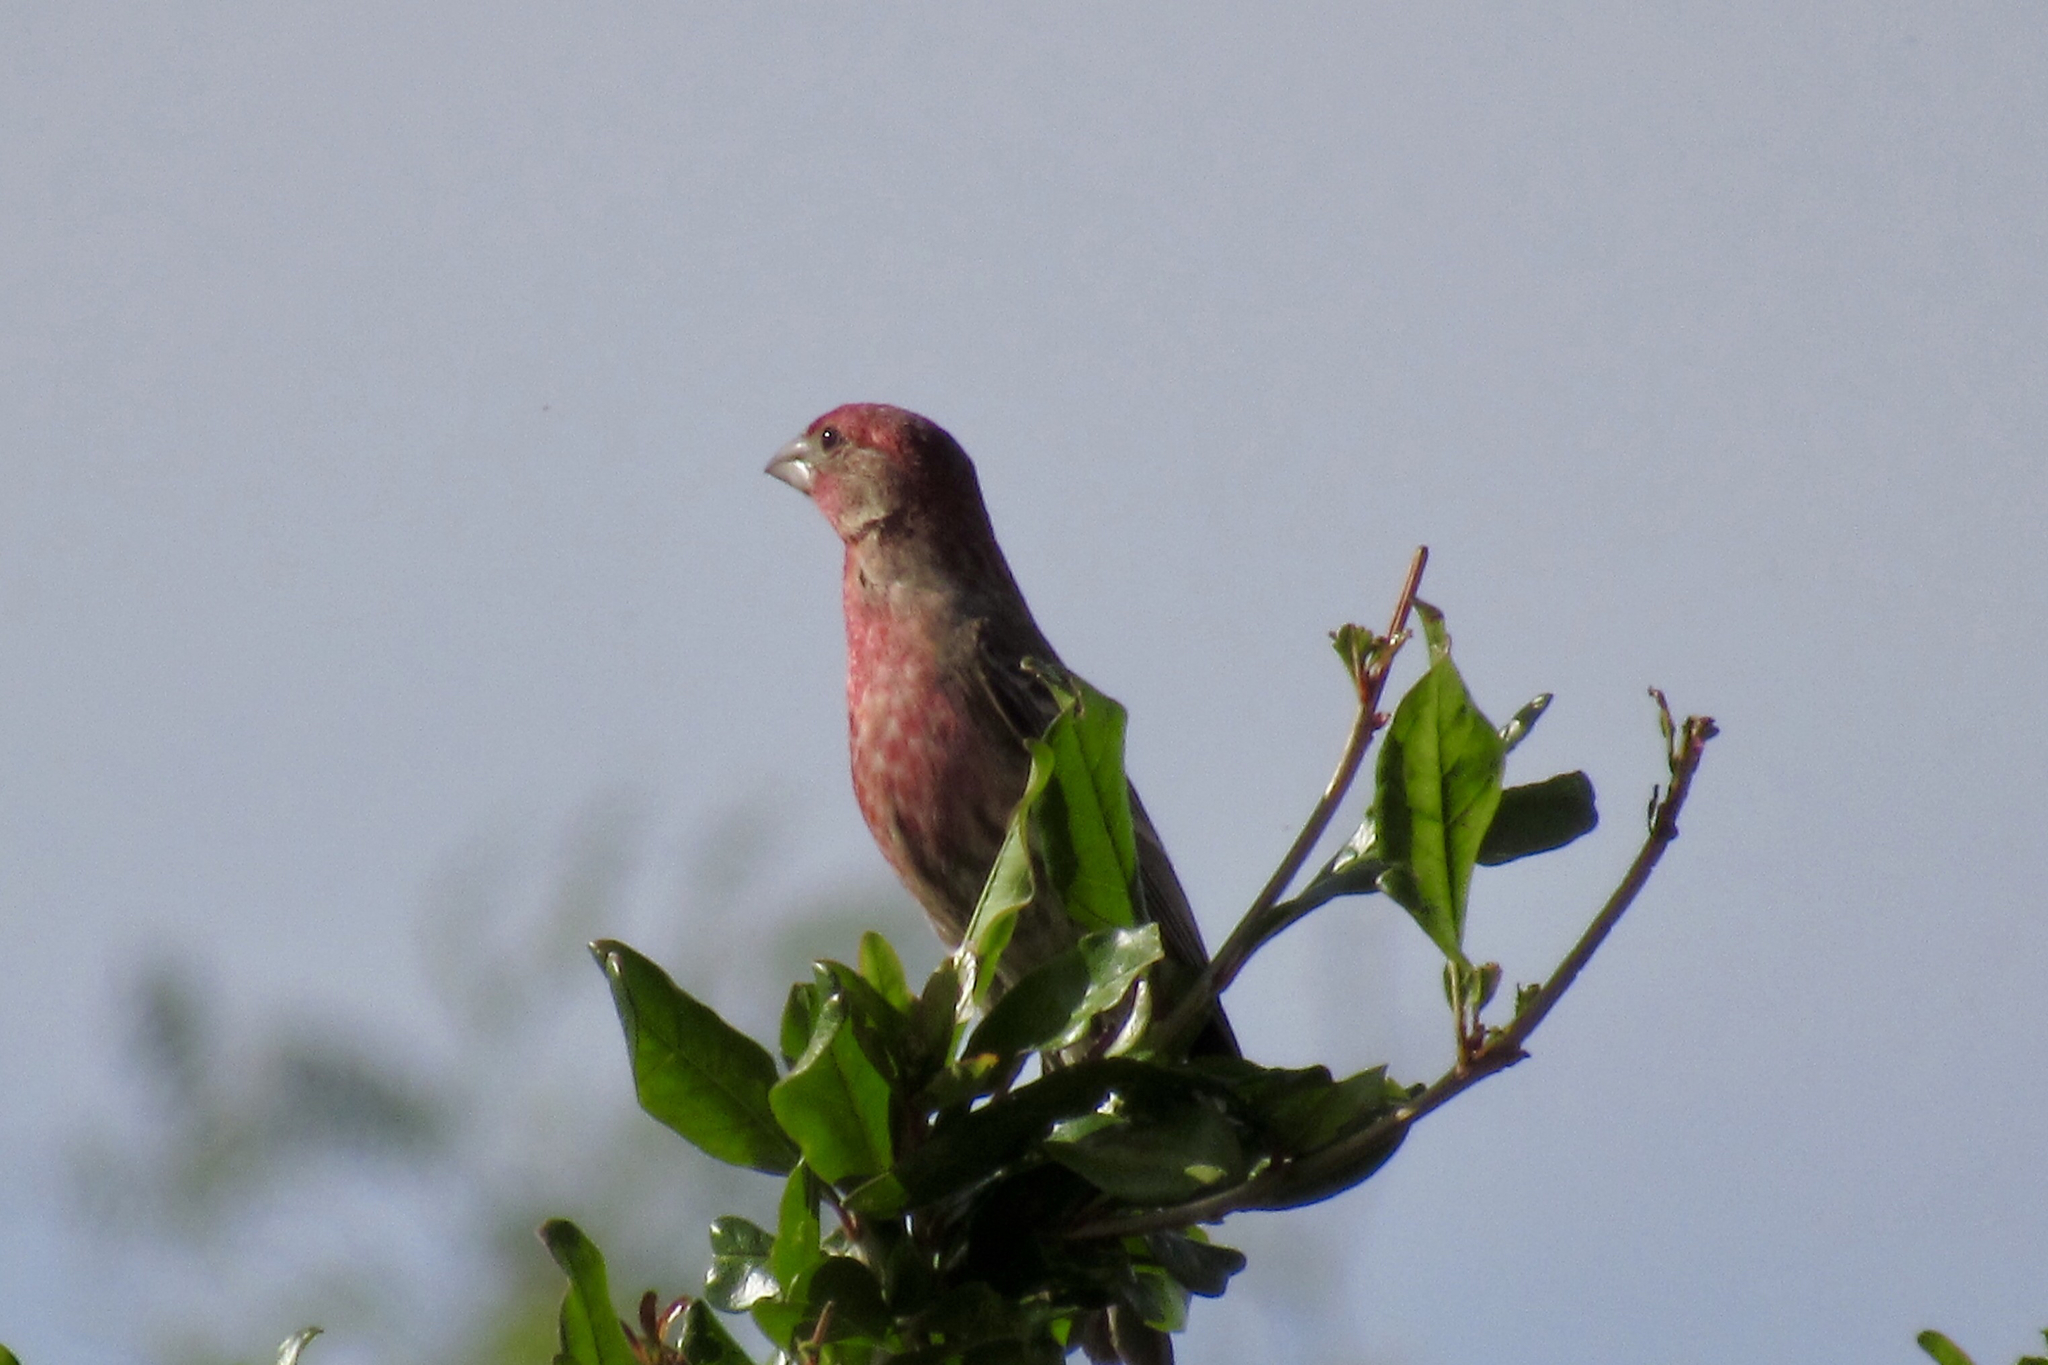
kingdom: Animalia
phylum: Chordata
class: Aves
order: Passeriformes
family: Fringillidae
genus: Haemorhous
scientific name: Haemorhous mexicanus
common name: House finch
